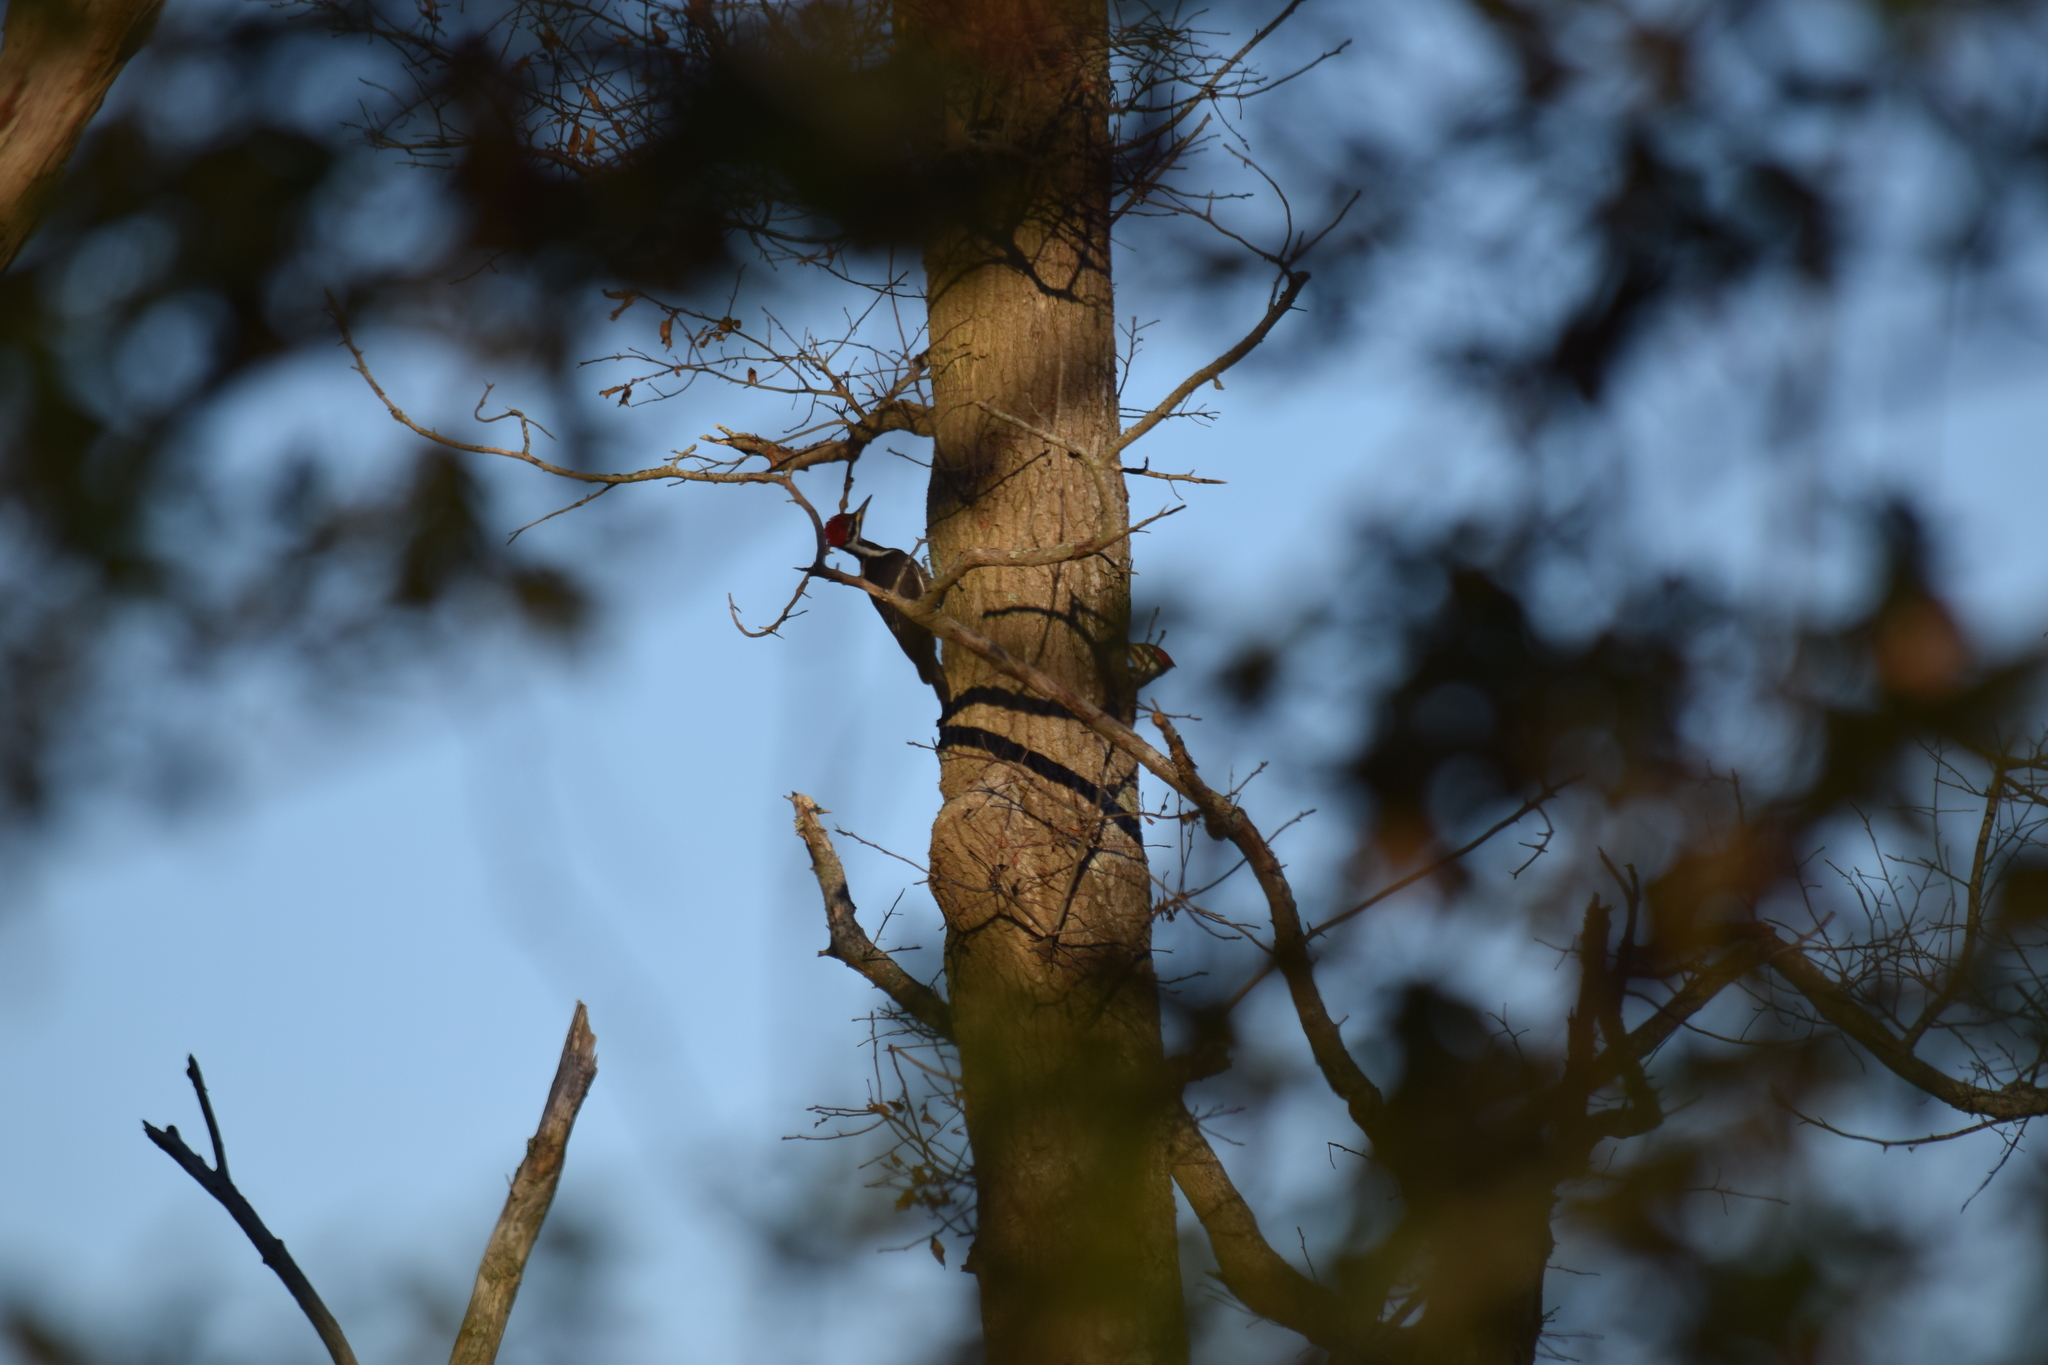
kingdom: Animalia
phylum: Chordata
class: Aves
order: Piciformes
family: Picidae
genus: Dryocopus
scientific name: Dryocopus pileatus
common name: Pileated woodpecker
